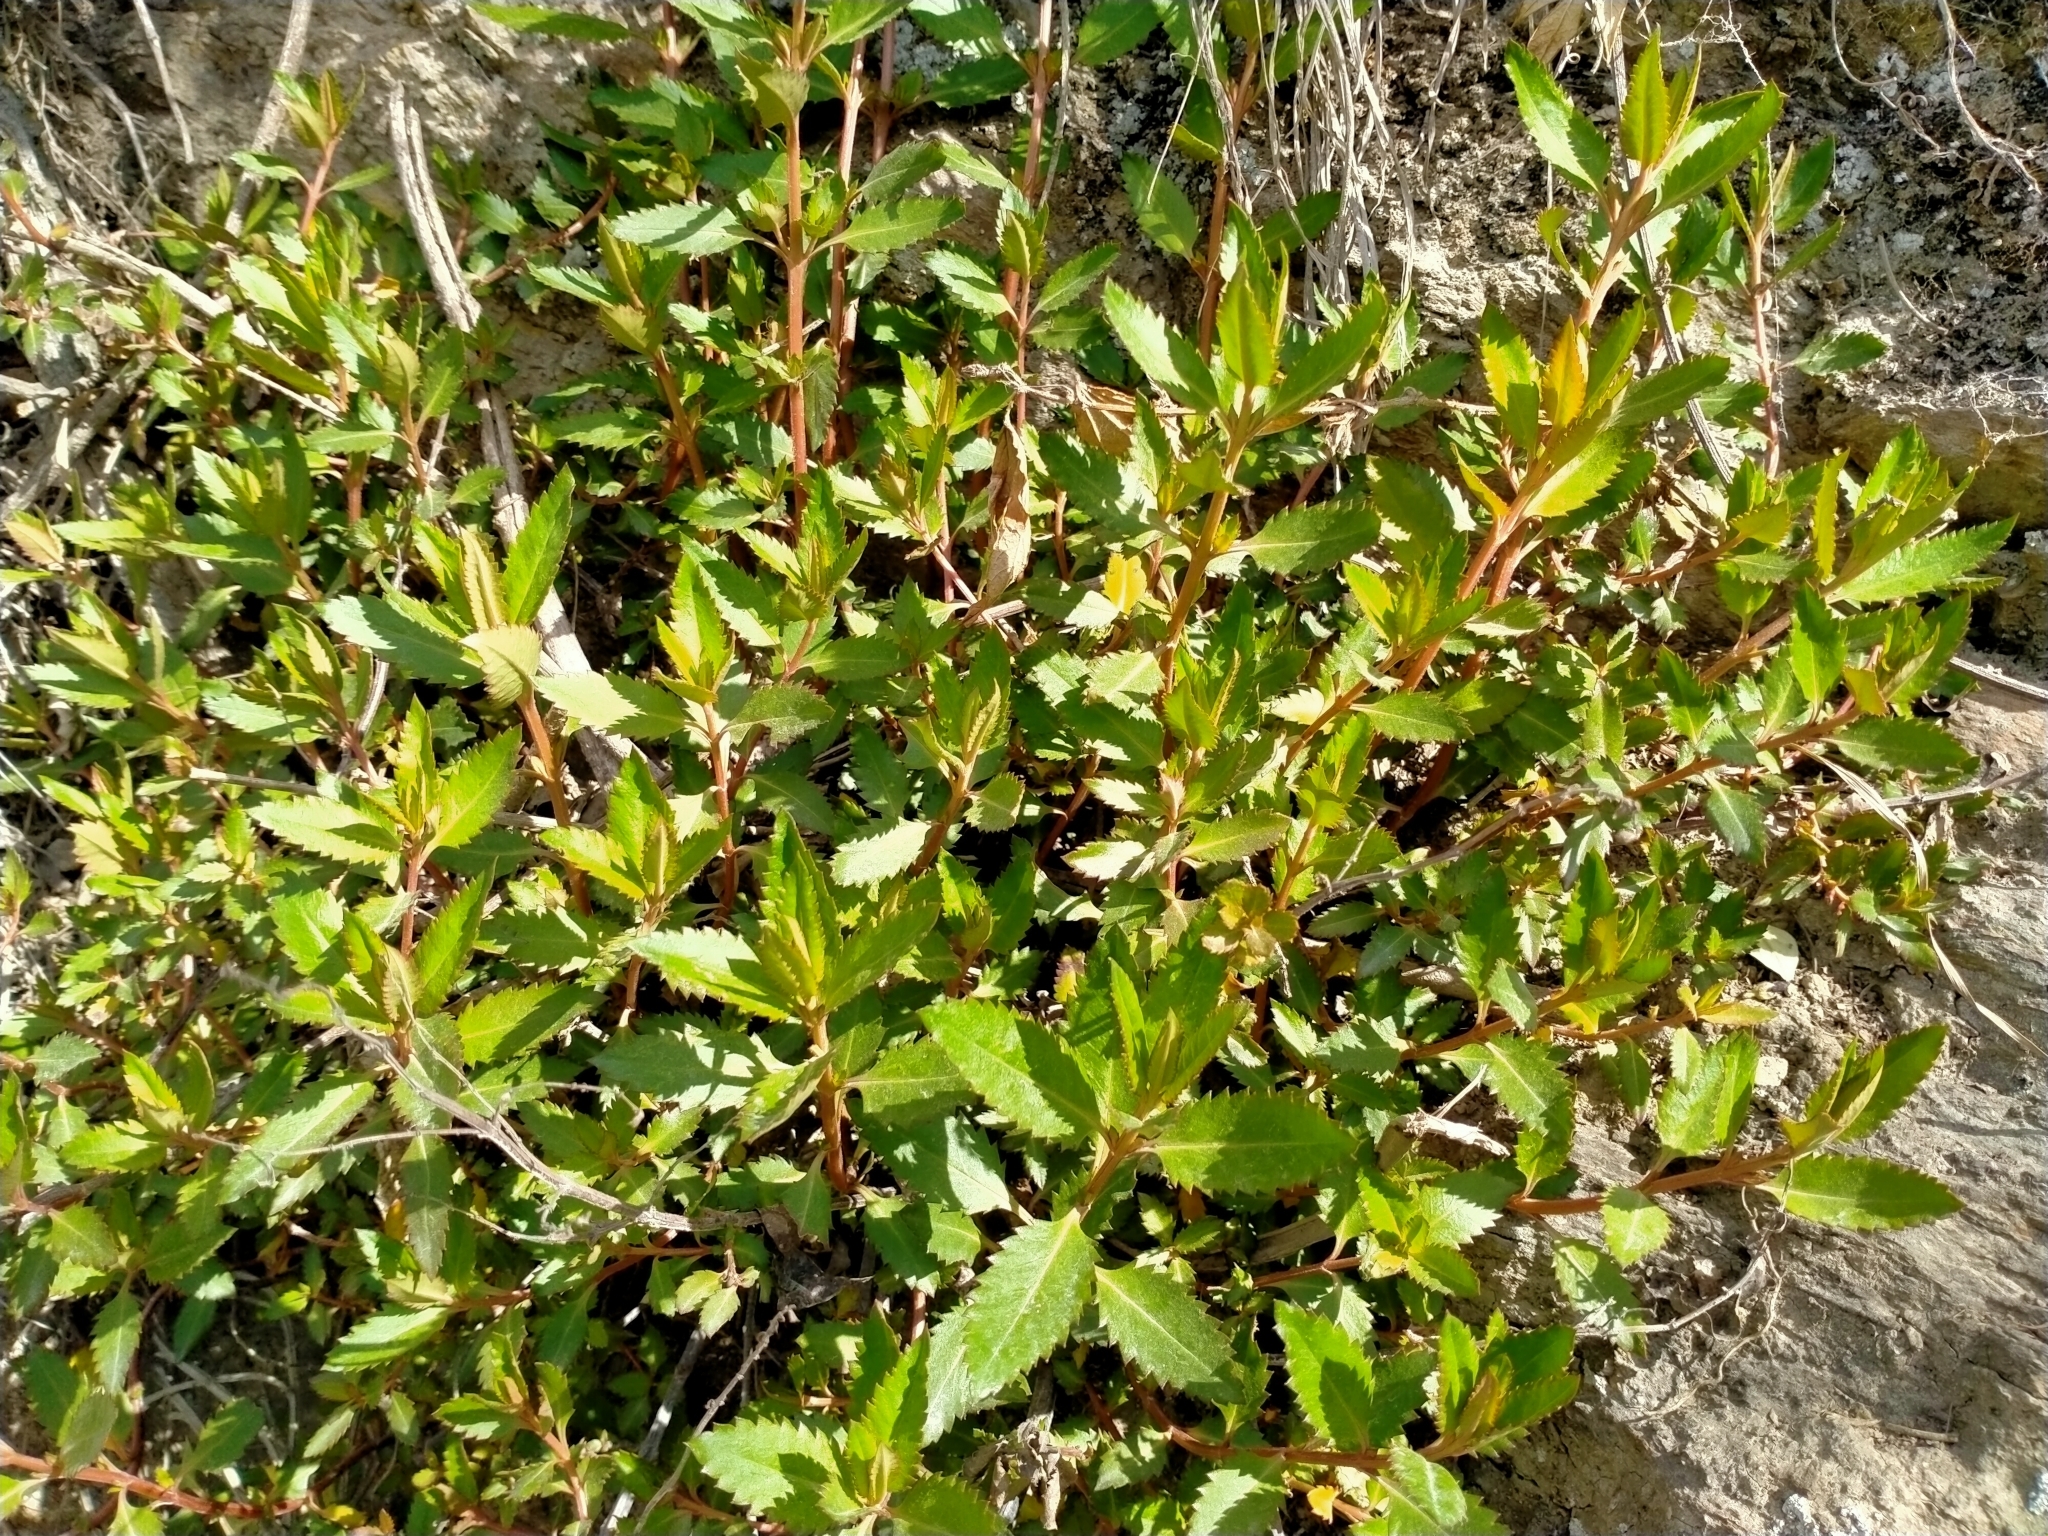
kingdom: Plantae
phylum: Tracheophyta
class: Magnoliopsida
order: Saxifragales
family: Haloragaceae
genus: Haloragis
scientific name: Haloragis erecta
